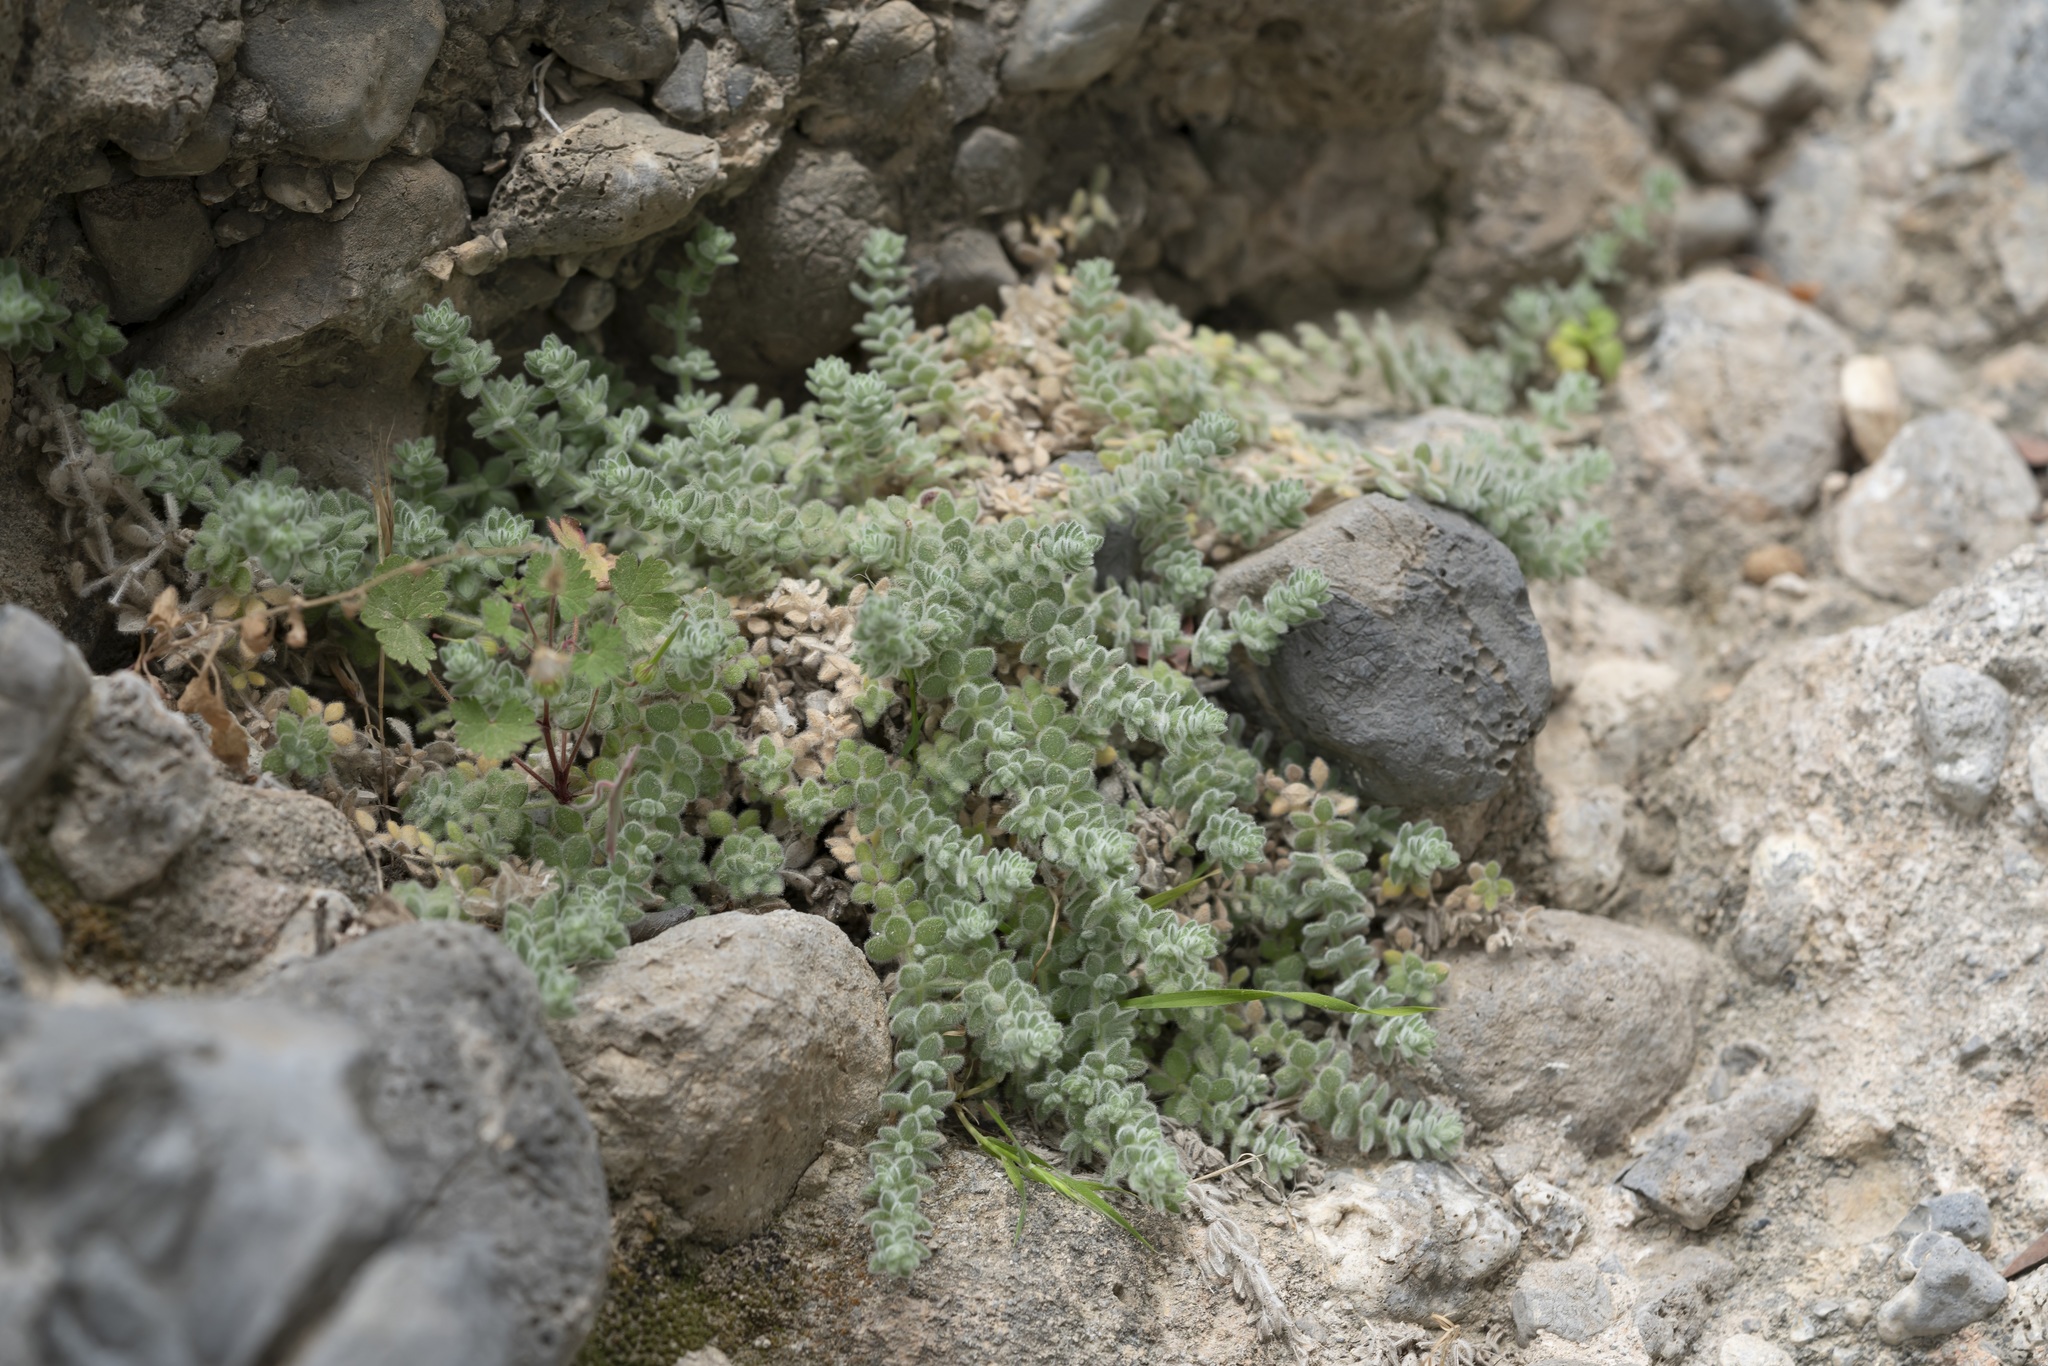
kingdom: Plantae
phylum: Tracheophyta
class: Magnoliopsida
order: Gentianales
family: Rubiaceae
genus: Galium
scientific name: Galium canum
